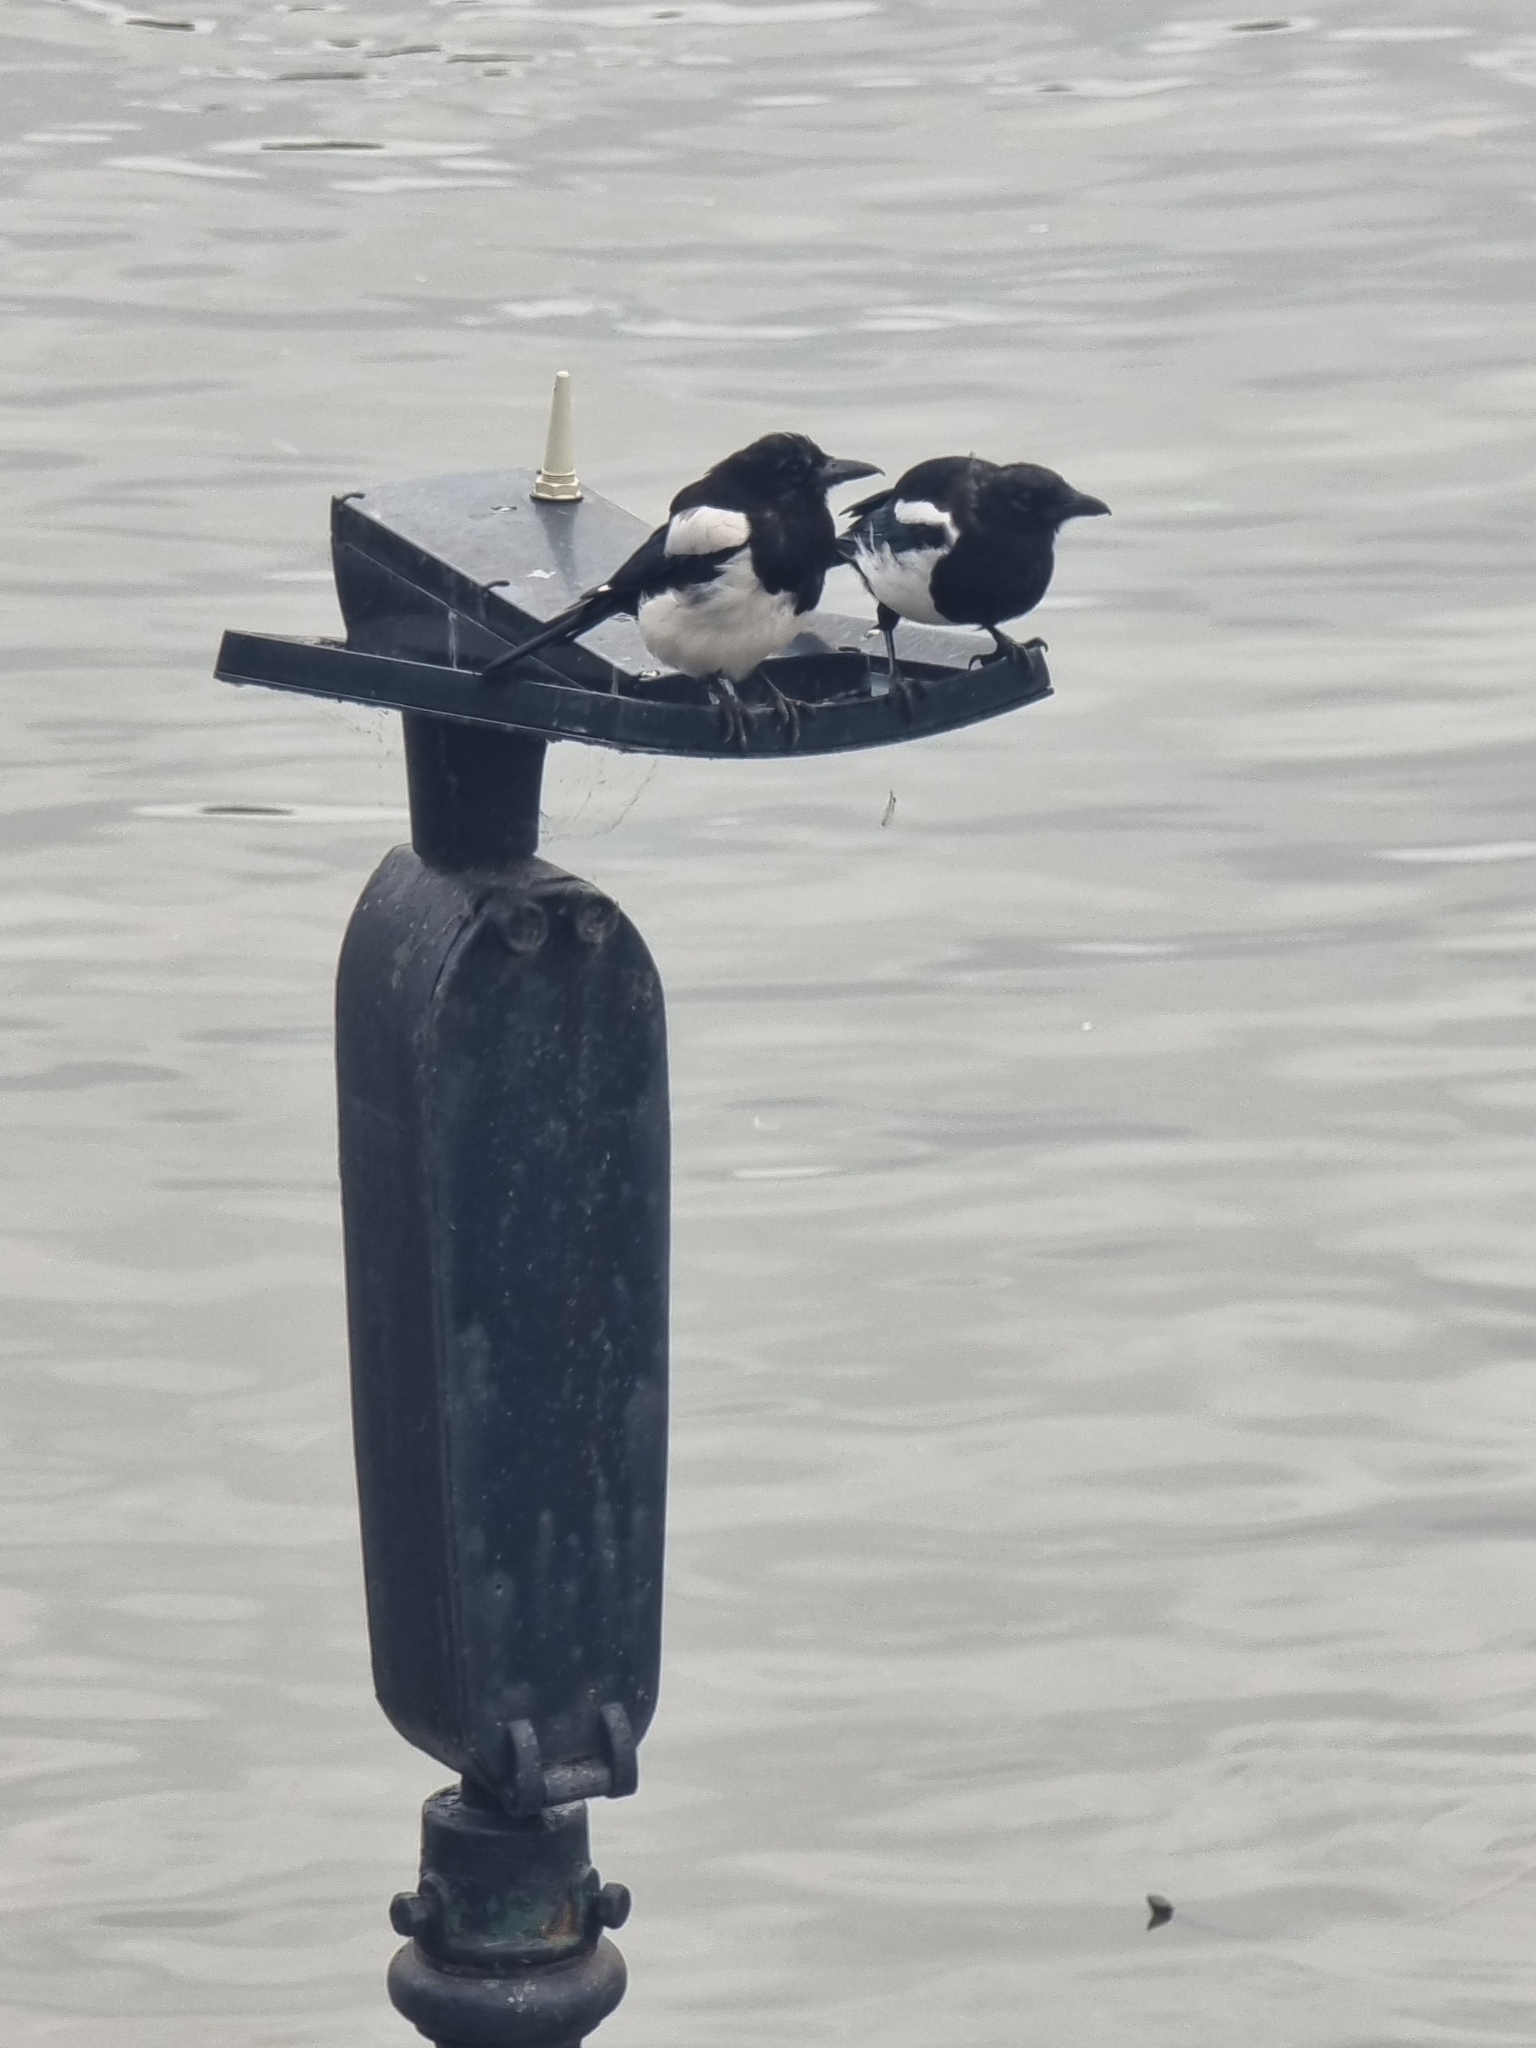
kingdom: Animalia
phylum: Chordata
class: Aves
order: Passeriformes
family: Corvidae
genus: Pica
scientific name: Pica pica
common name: Eurasian magpie
